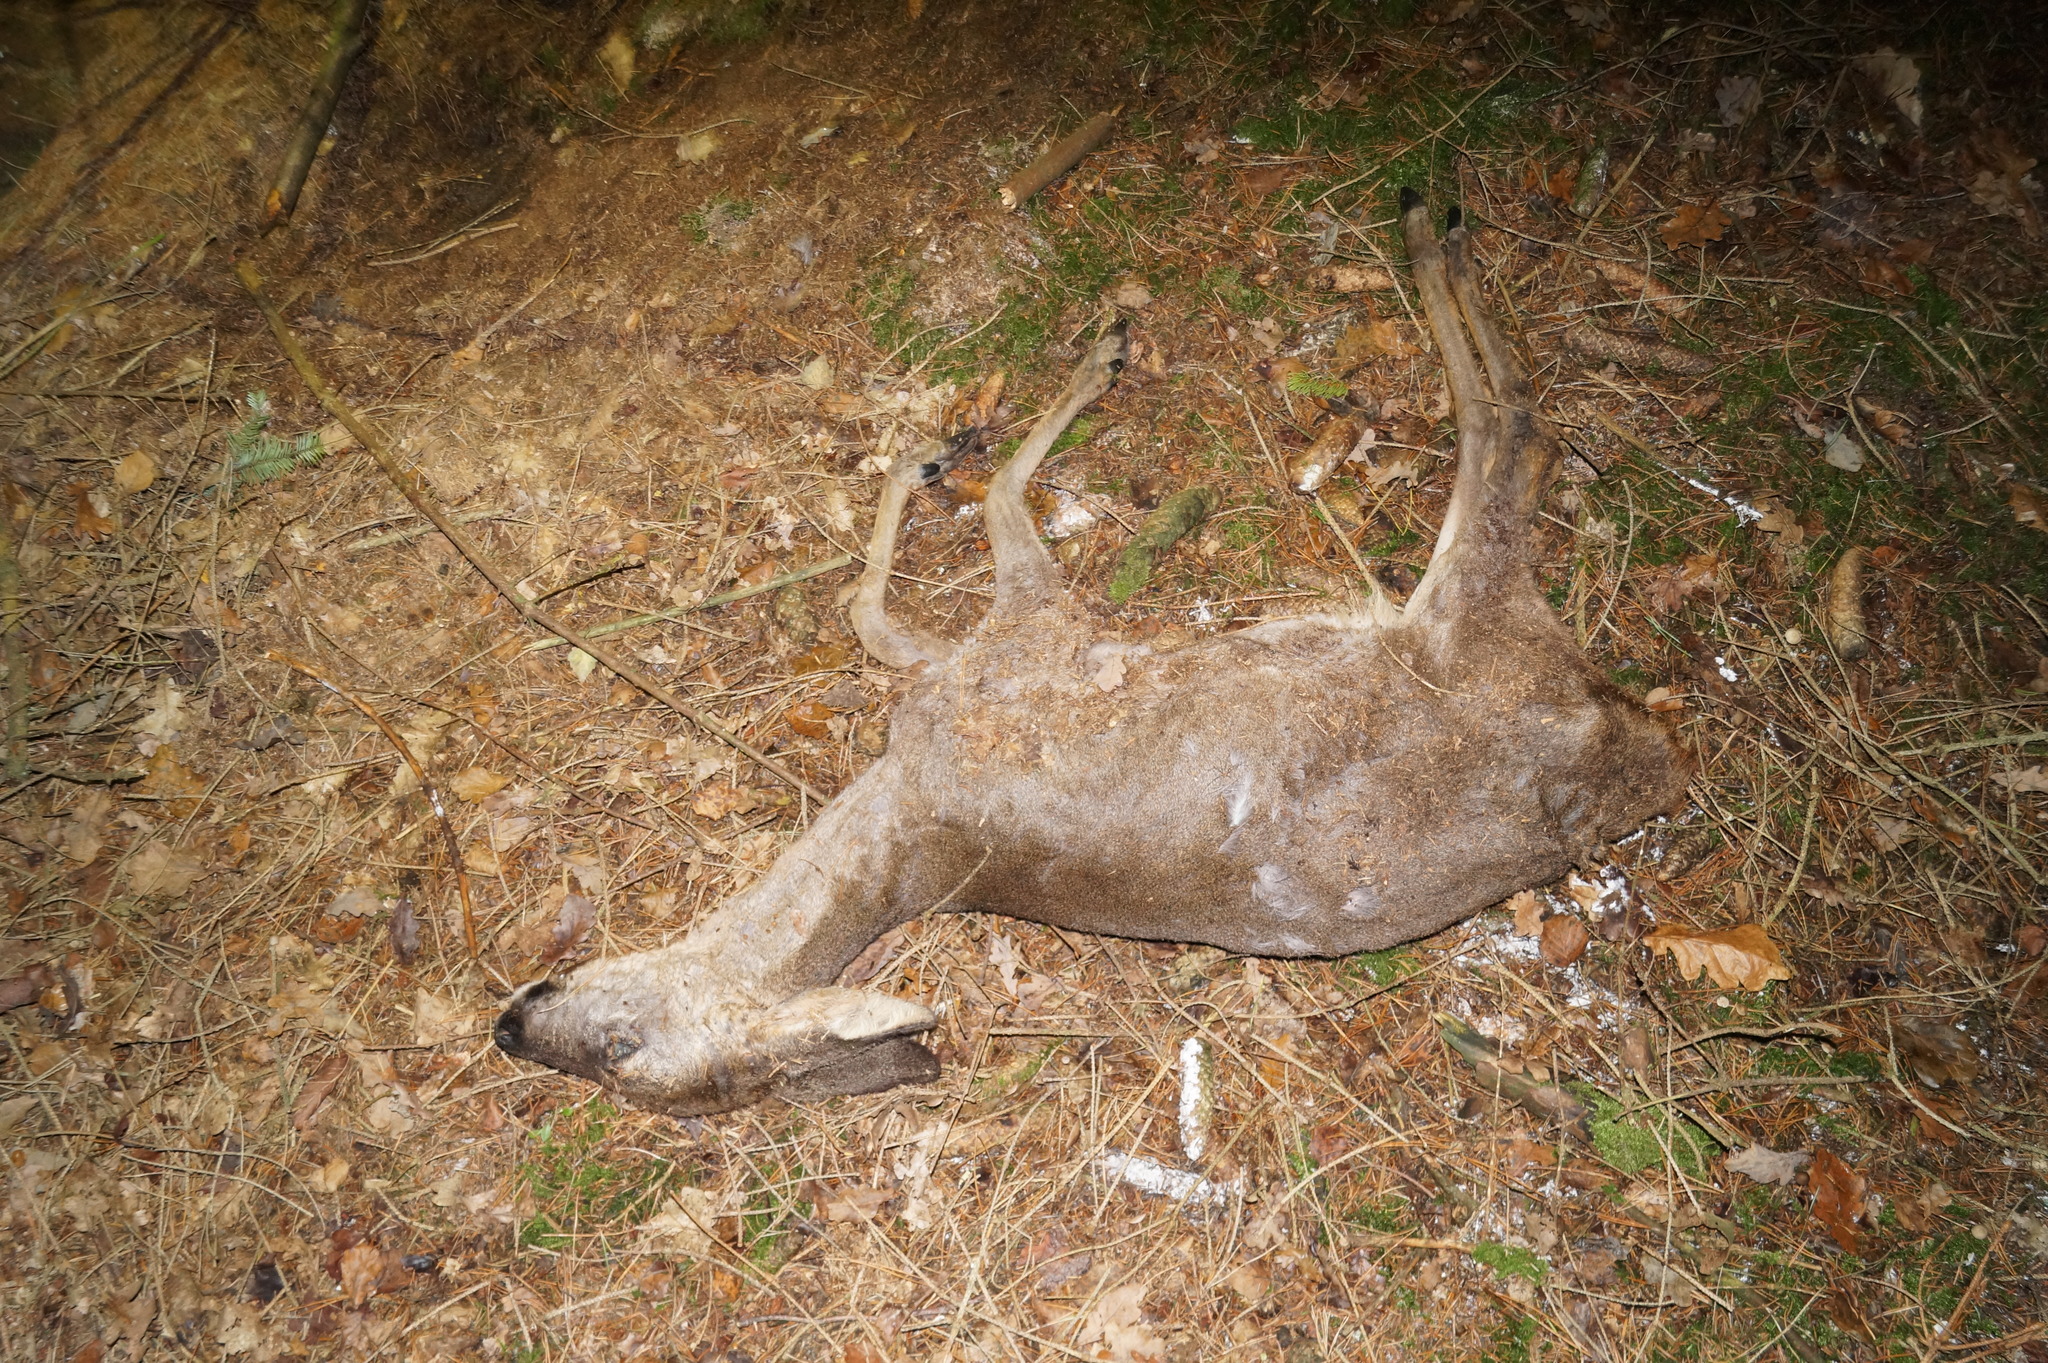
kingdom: Animalia
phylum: Chordata
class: Mammalia
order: Artiodactyla
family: Cervidae
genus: Capreolus
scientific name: Capreolus capreolus
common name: Western roe deer
